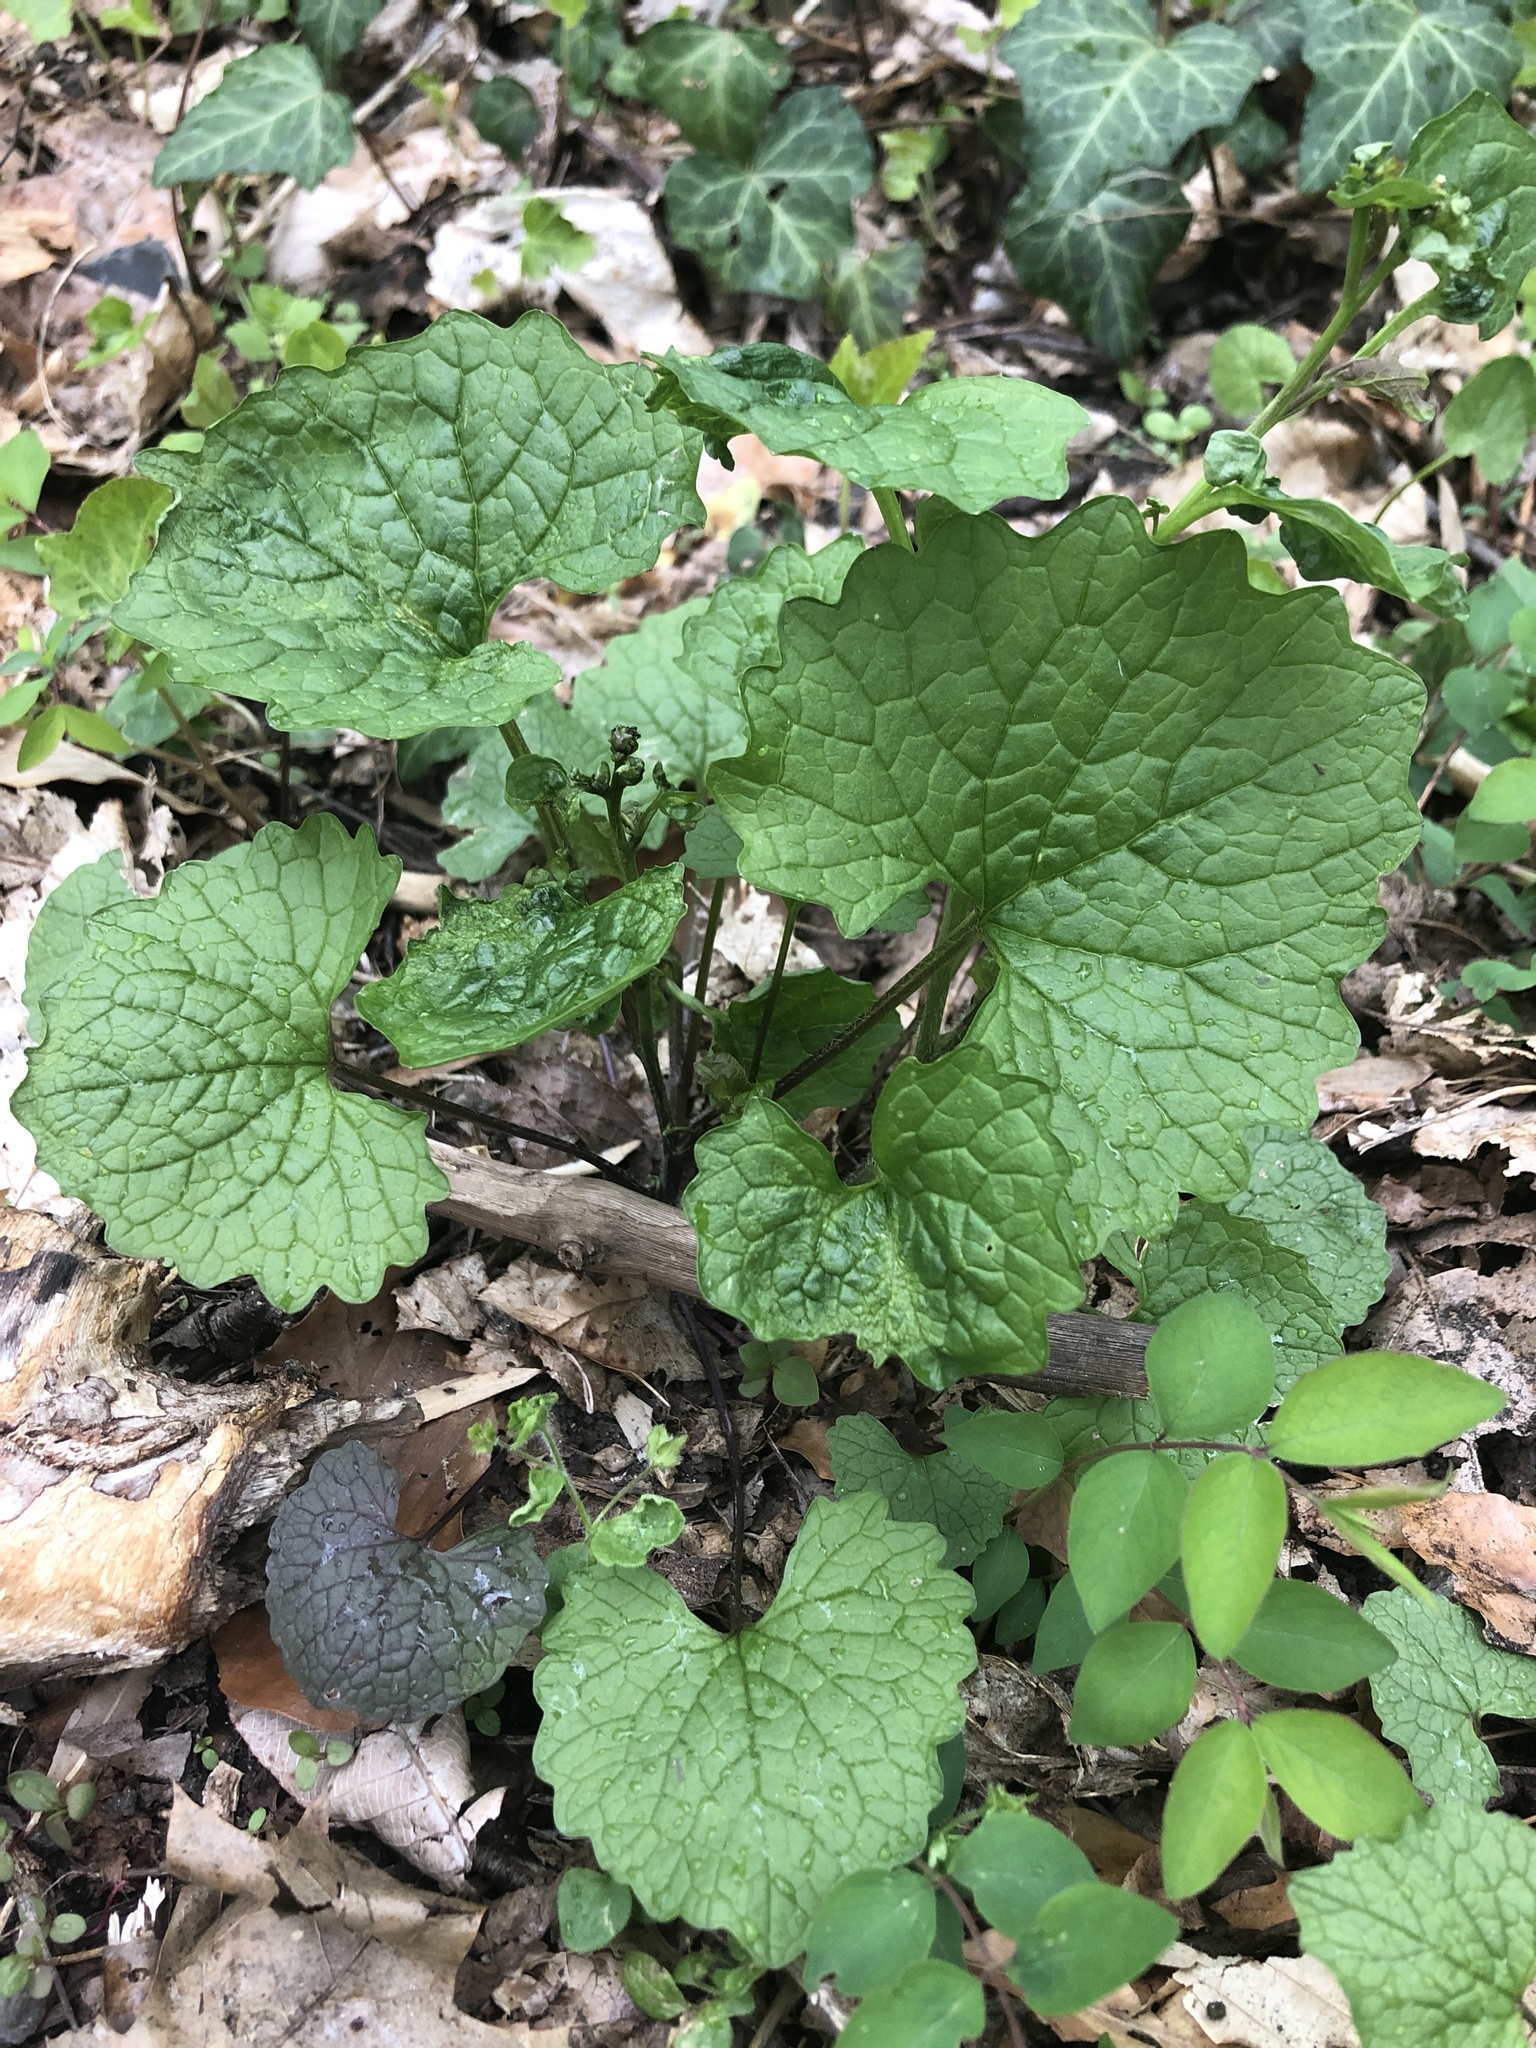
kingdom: Plantae
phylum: Tracheophyta
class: Magnoliopsida
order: Brassicales
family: Brassicaceae
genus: Alliaria
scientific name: Alliaria petiolata
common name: Garlic mustard
